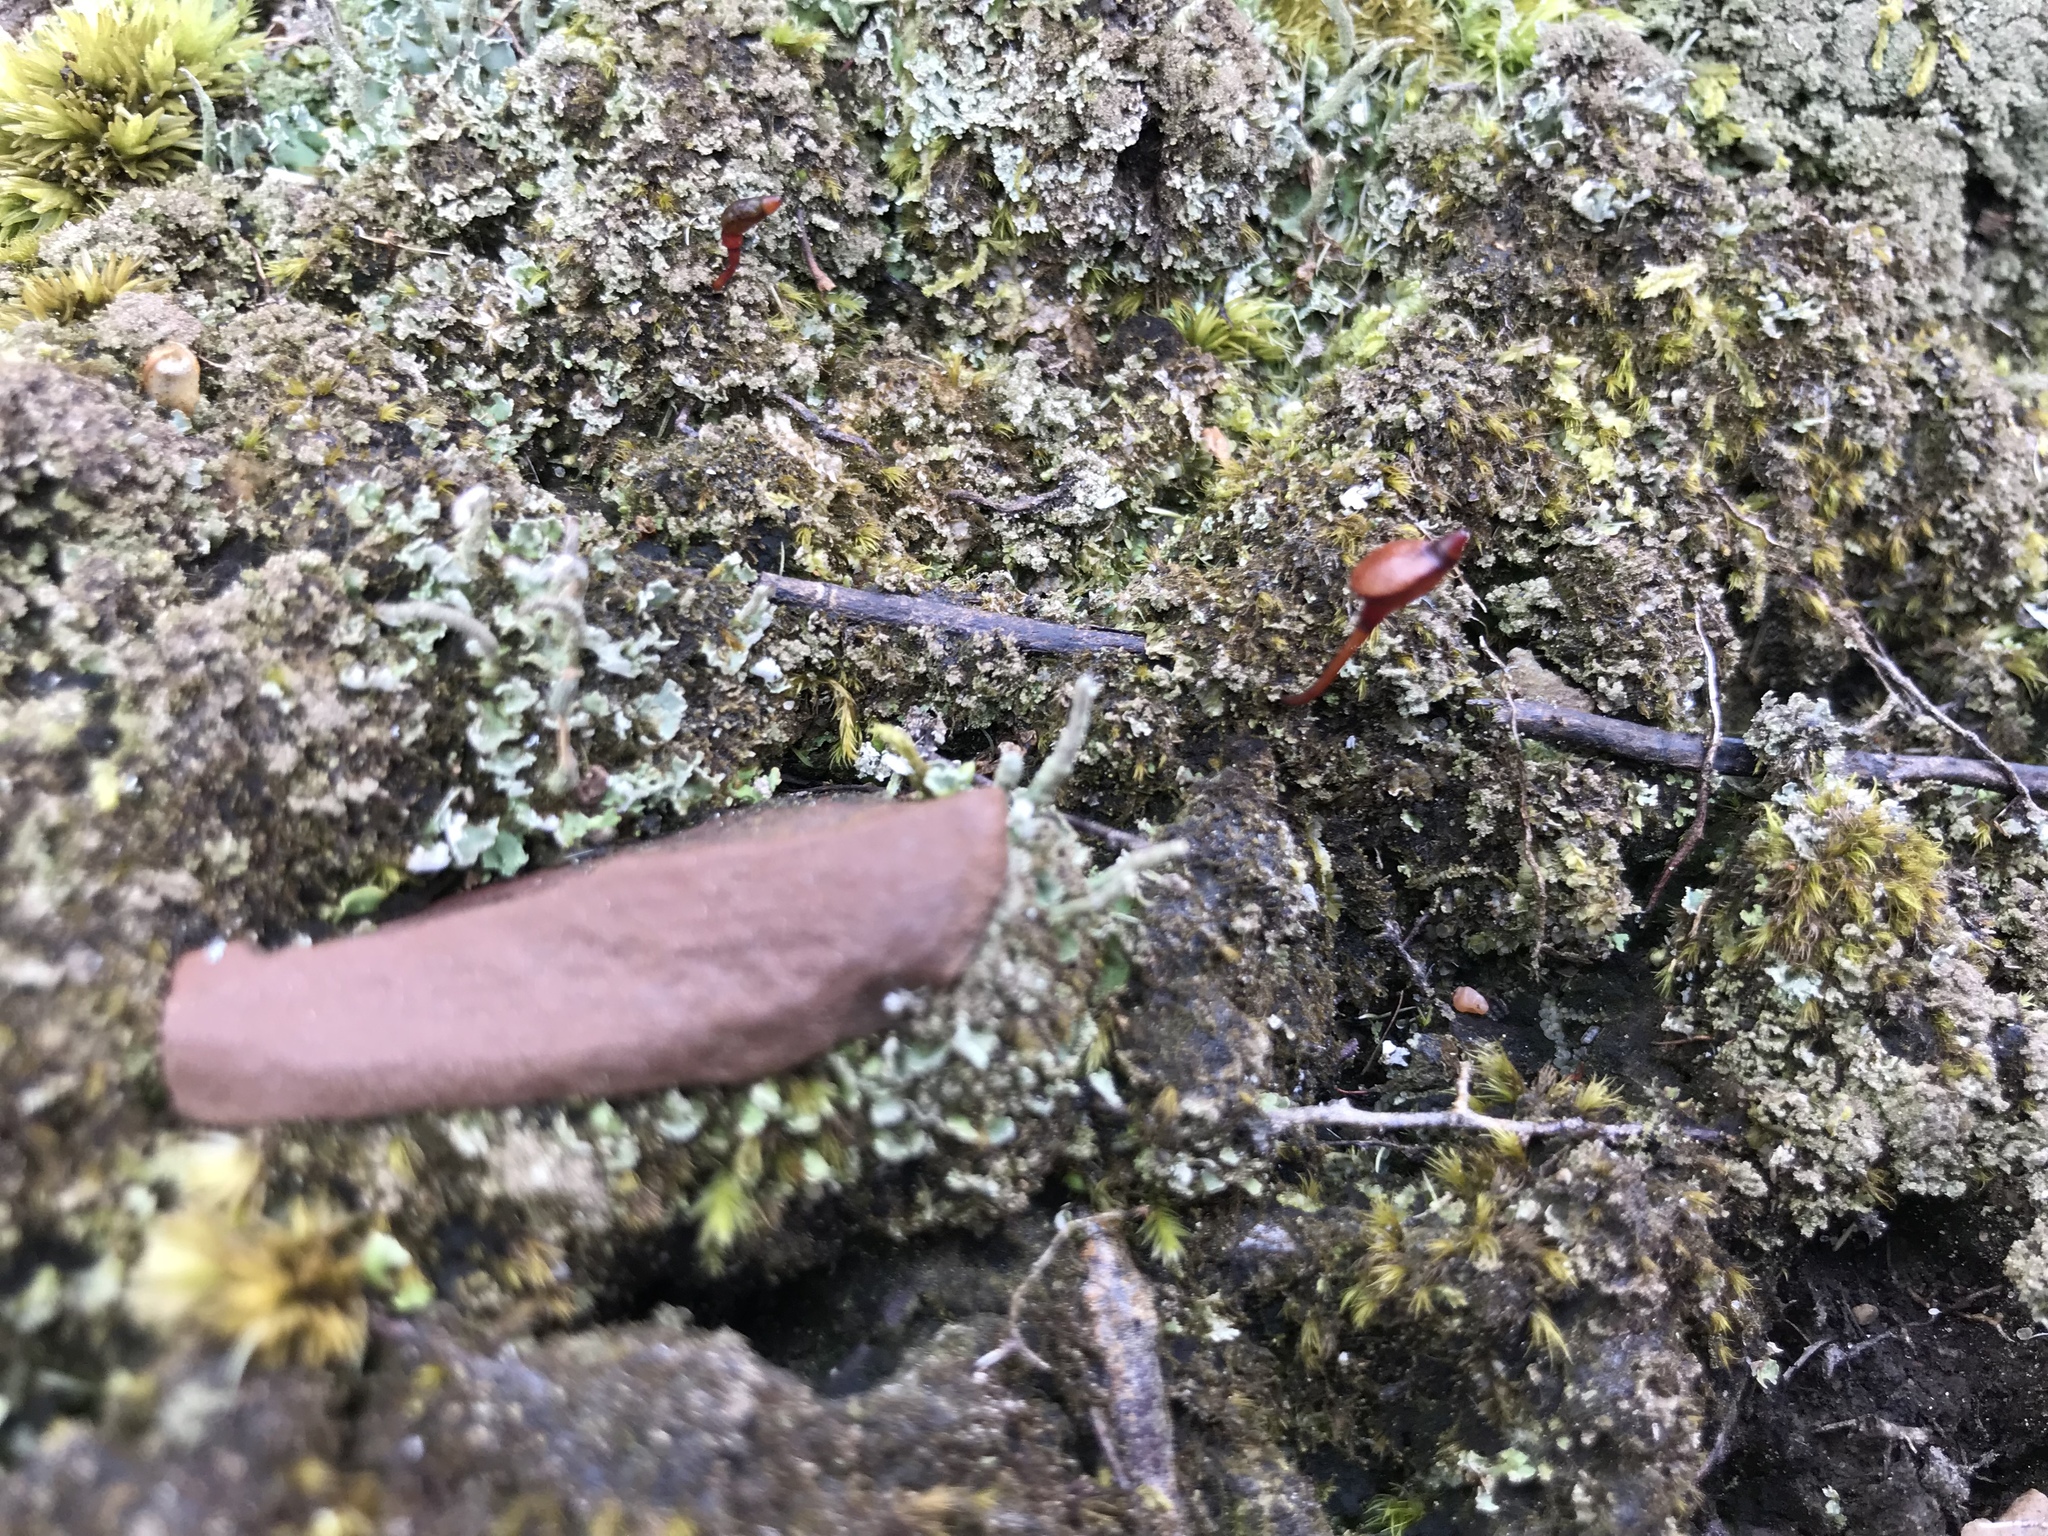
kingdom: Plantae
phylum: Bryophyta
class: Bryopsida
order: Buxbaumiales
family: Buxbaumiaceae
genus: Buxbaumia
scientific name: Buxbaumia aphylla
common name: Brown shield-moss
